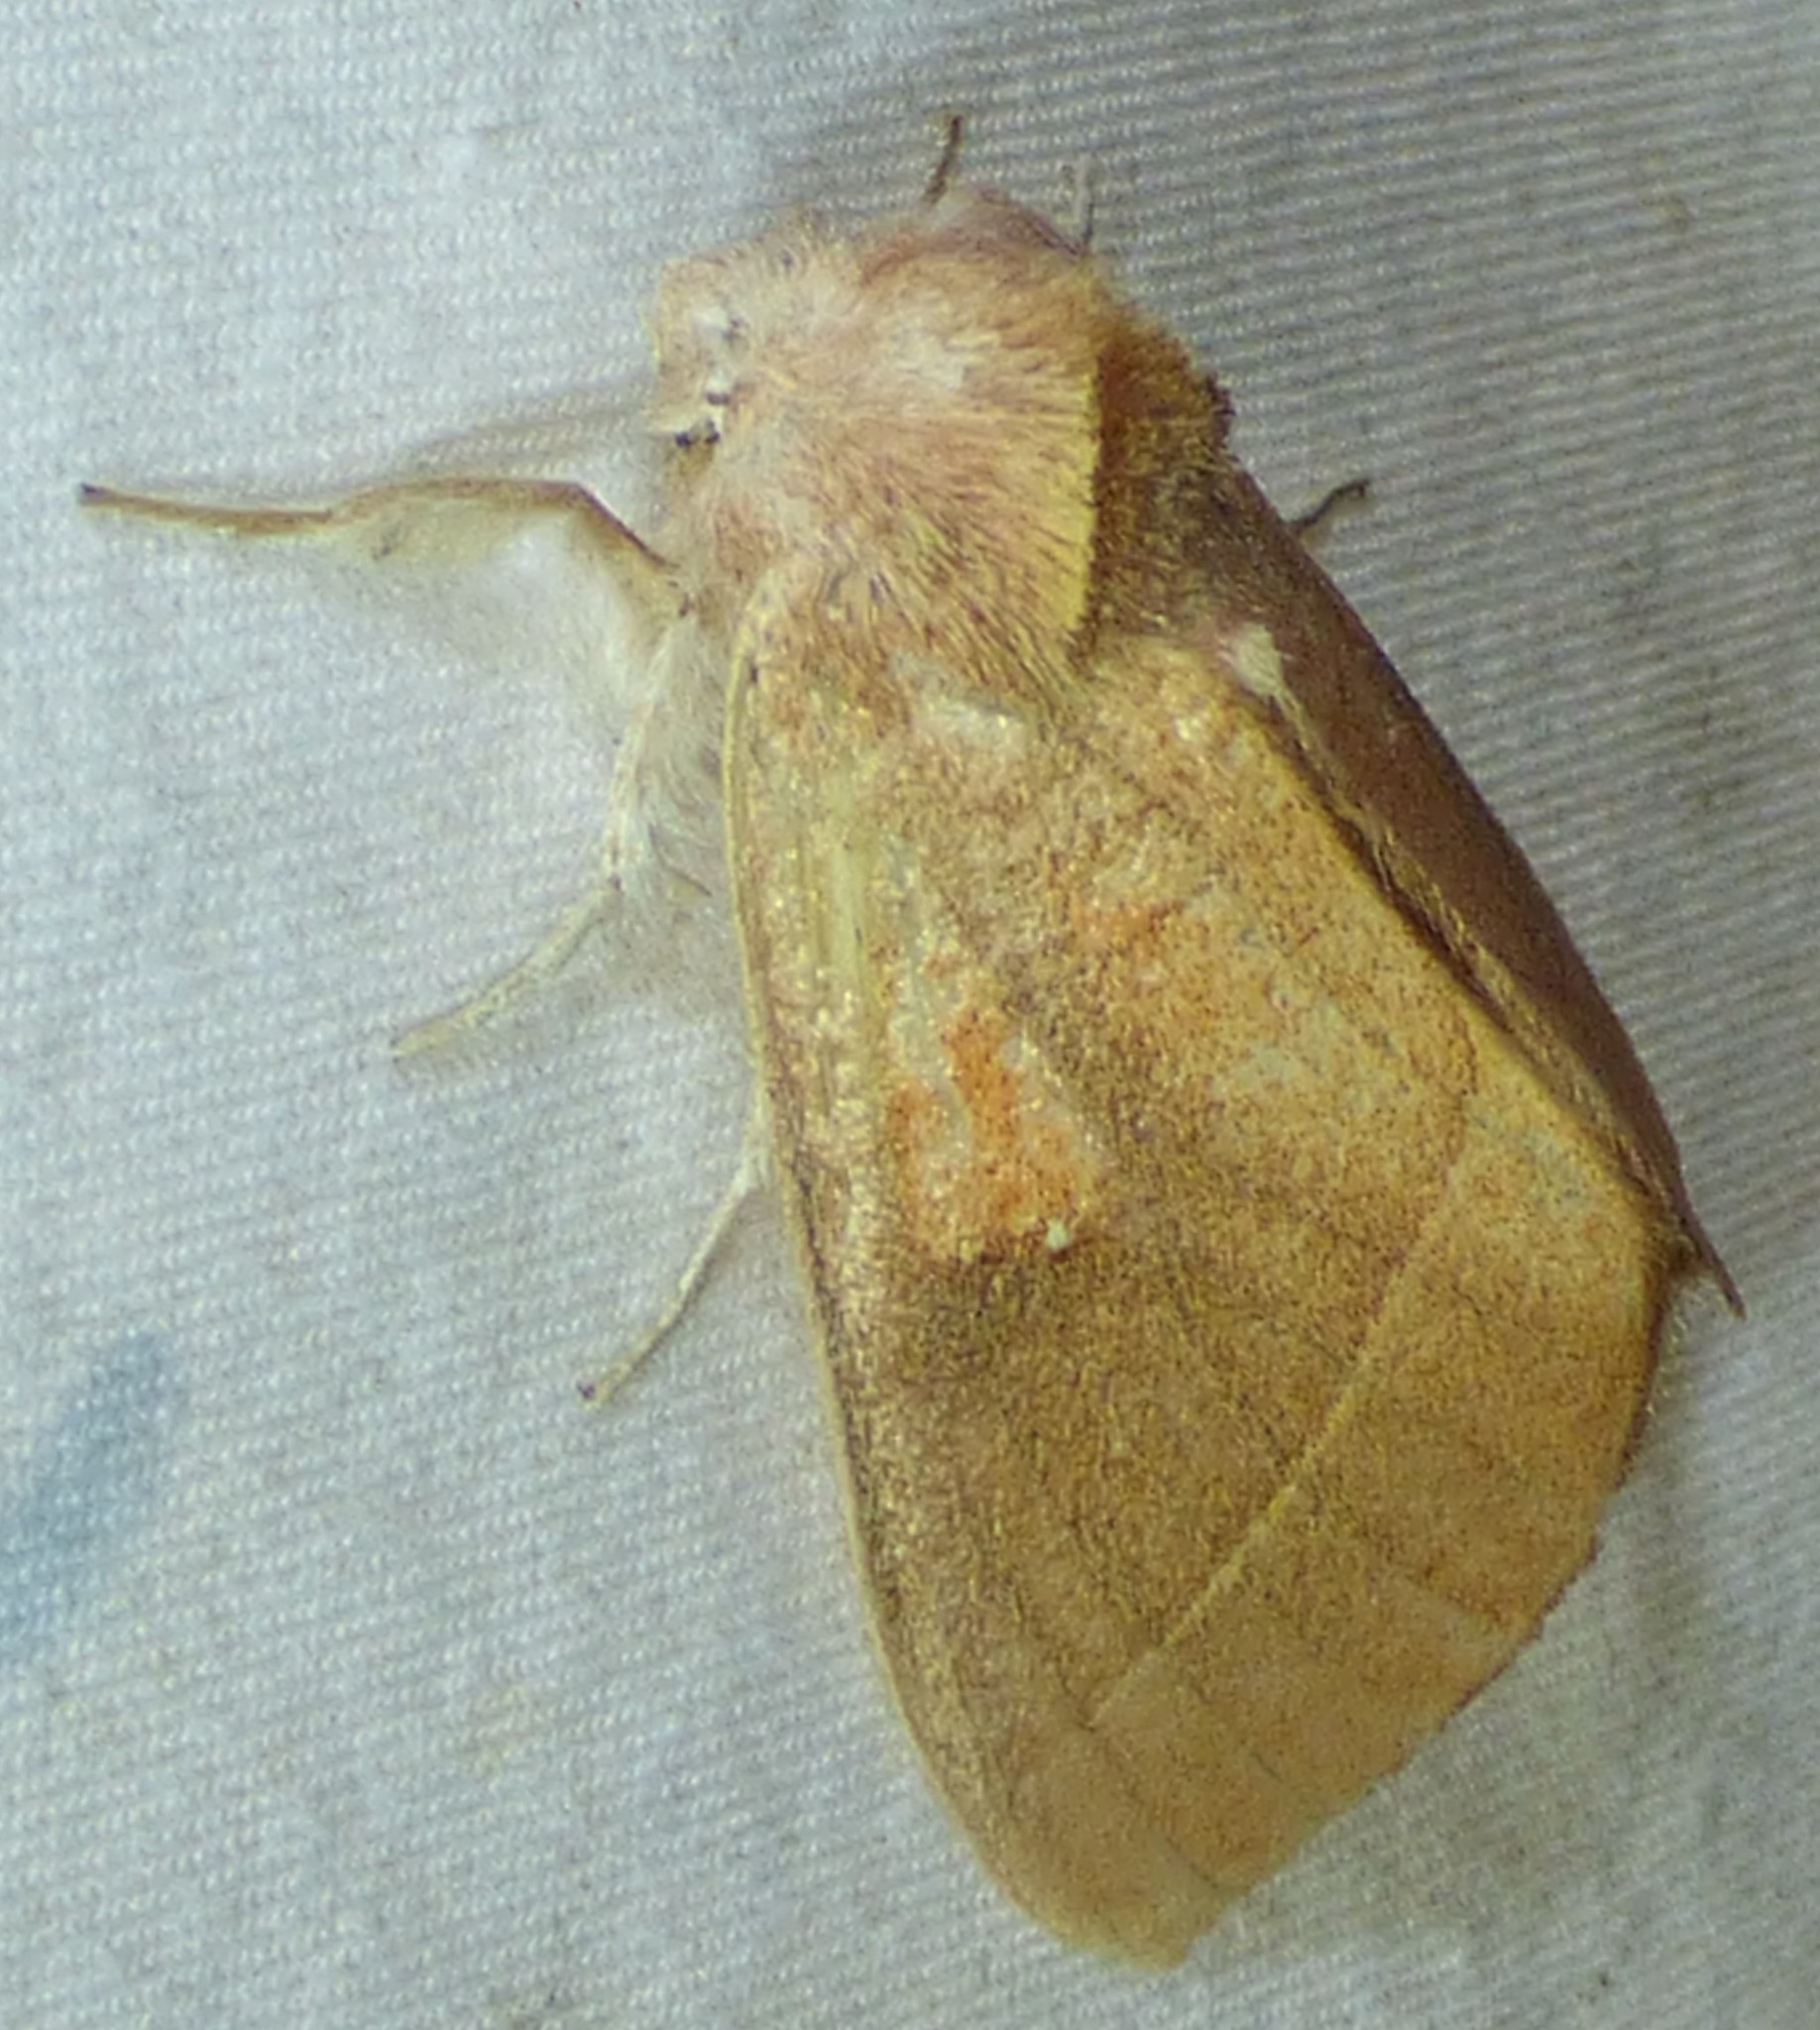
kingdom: Animalia
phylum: Arthropoda
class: Insecta
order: Lepidoptera
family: Notodontidae
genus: Nadata
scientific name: Nadata gibbosa
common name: White-dotted prominent
